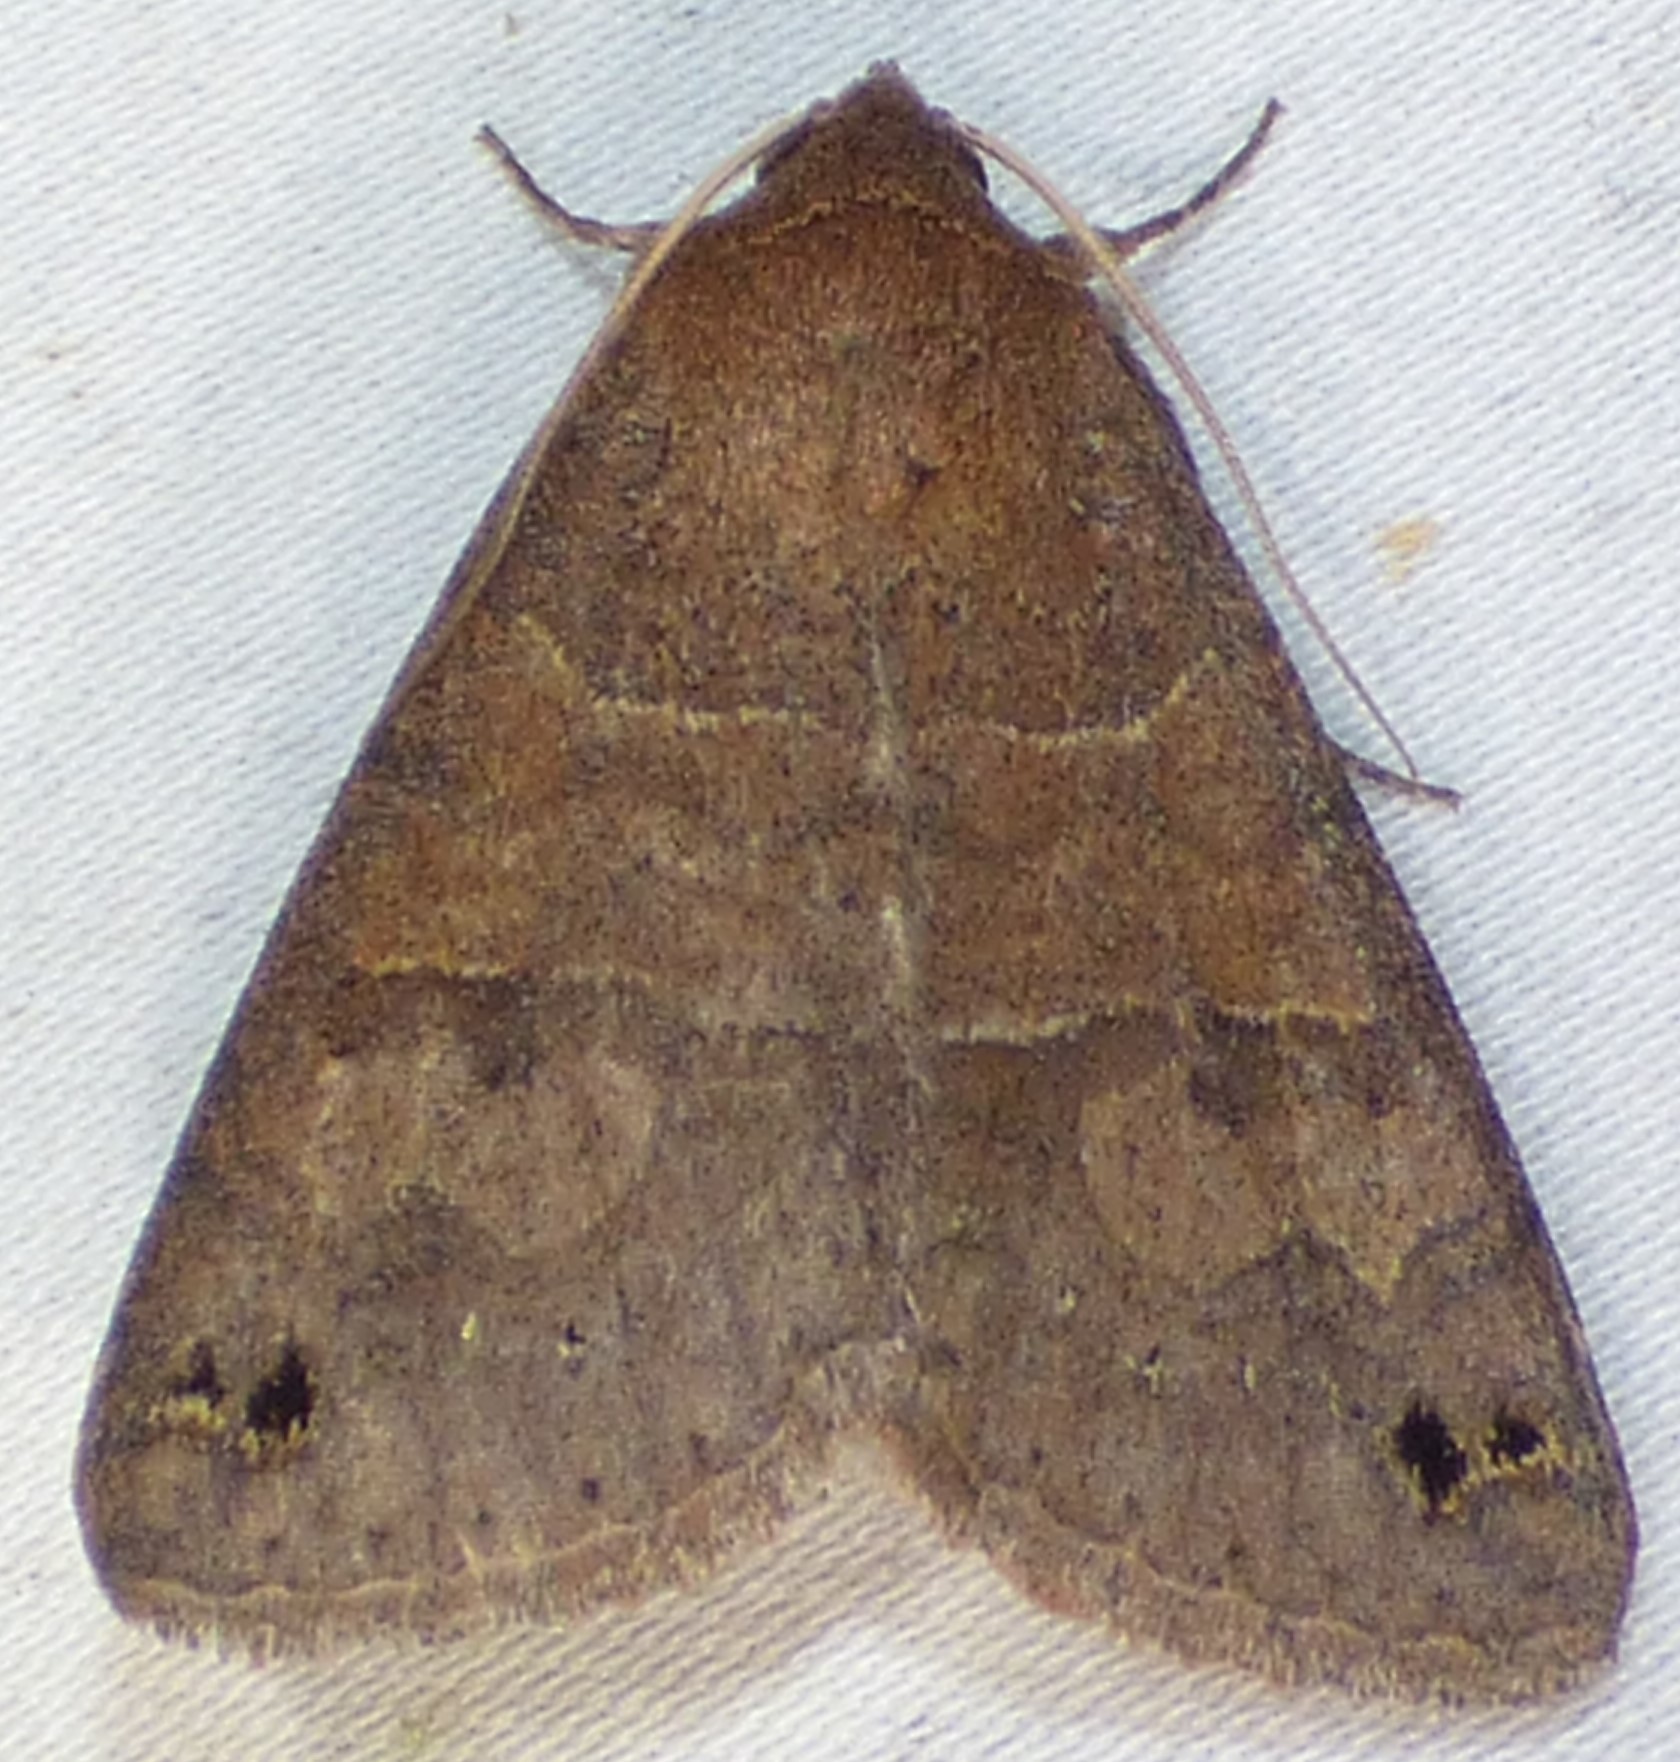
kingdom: Animalia
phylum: Arthropoda
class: Insecta
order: Lepidoptera
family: Erebidae
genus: Cissusa
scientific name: Cissusa spadix
